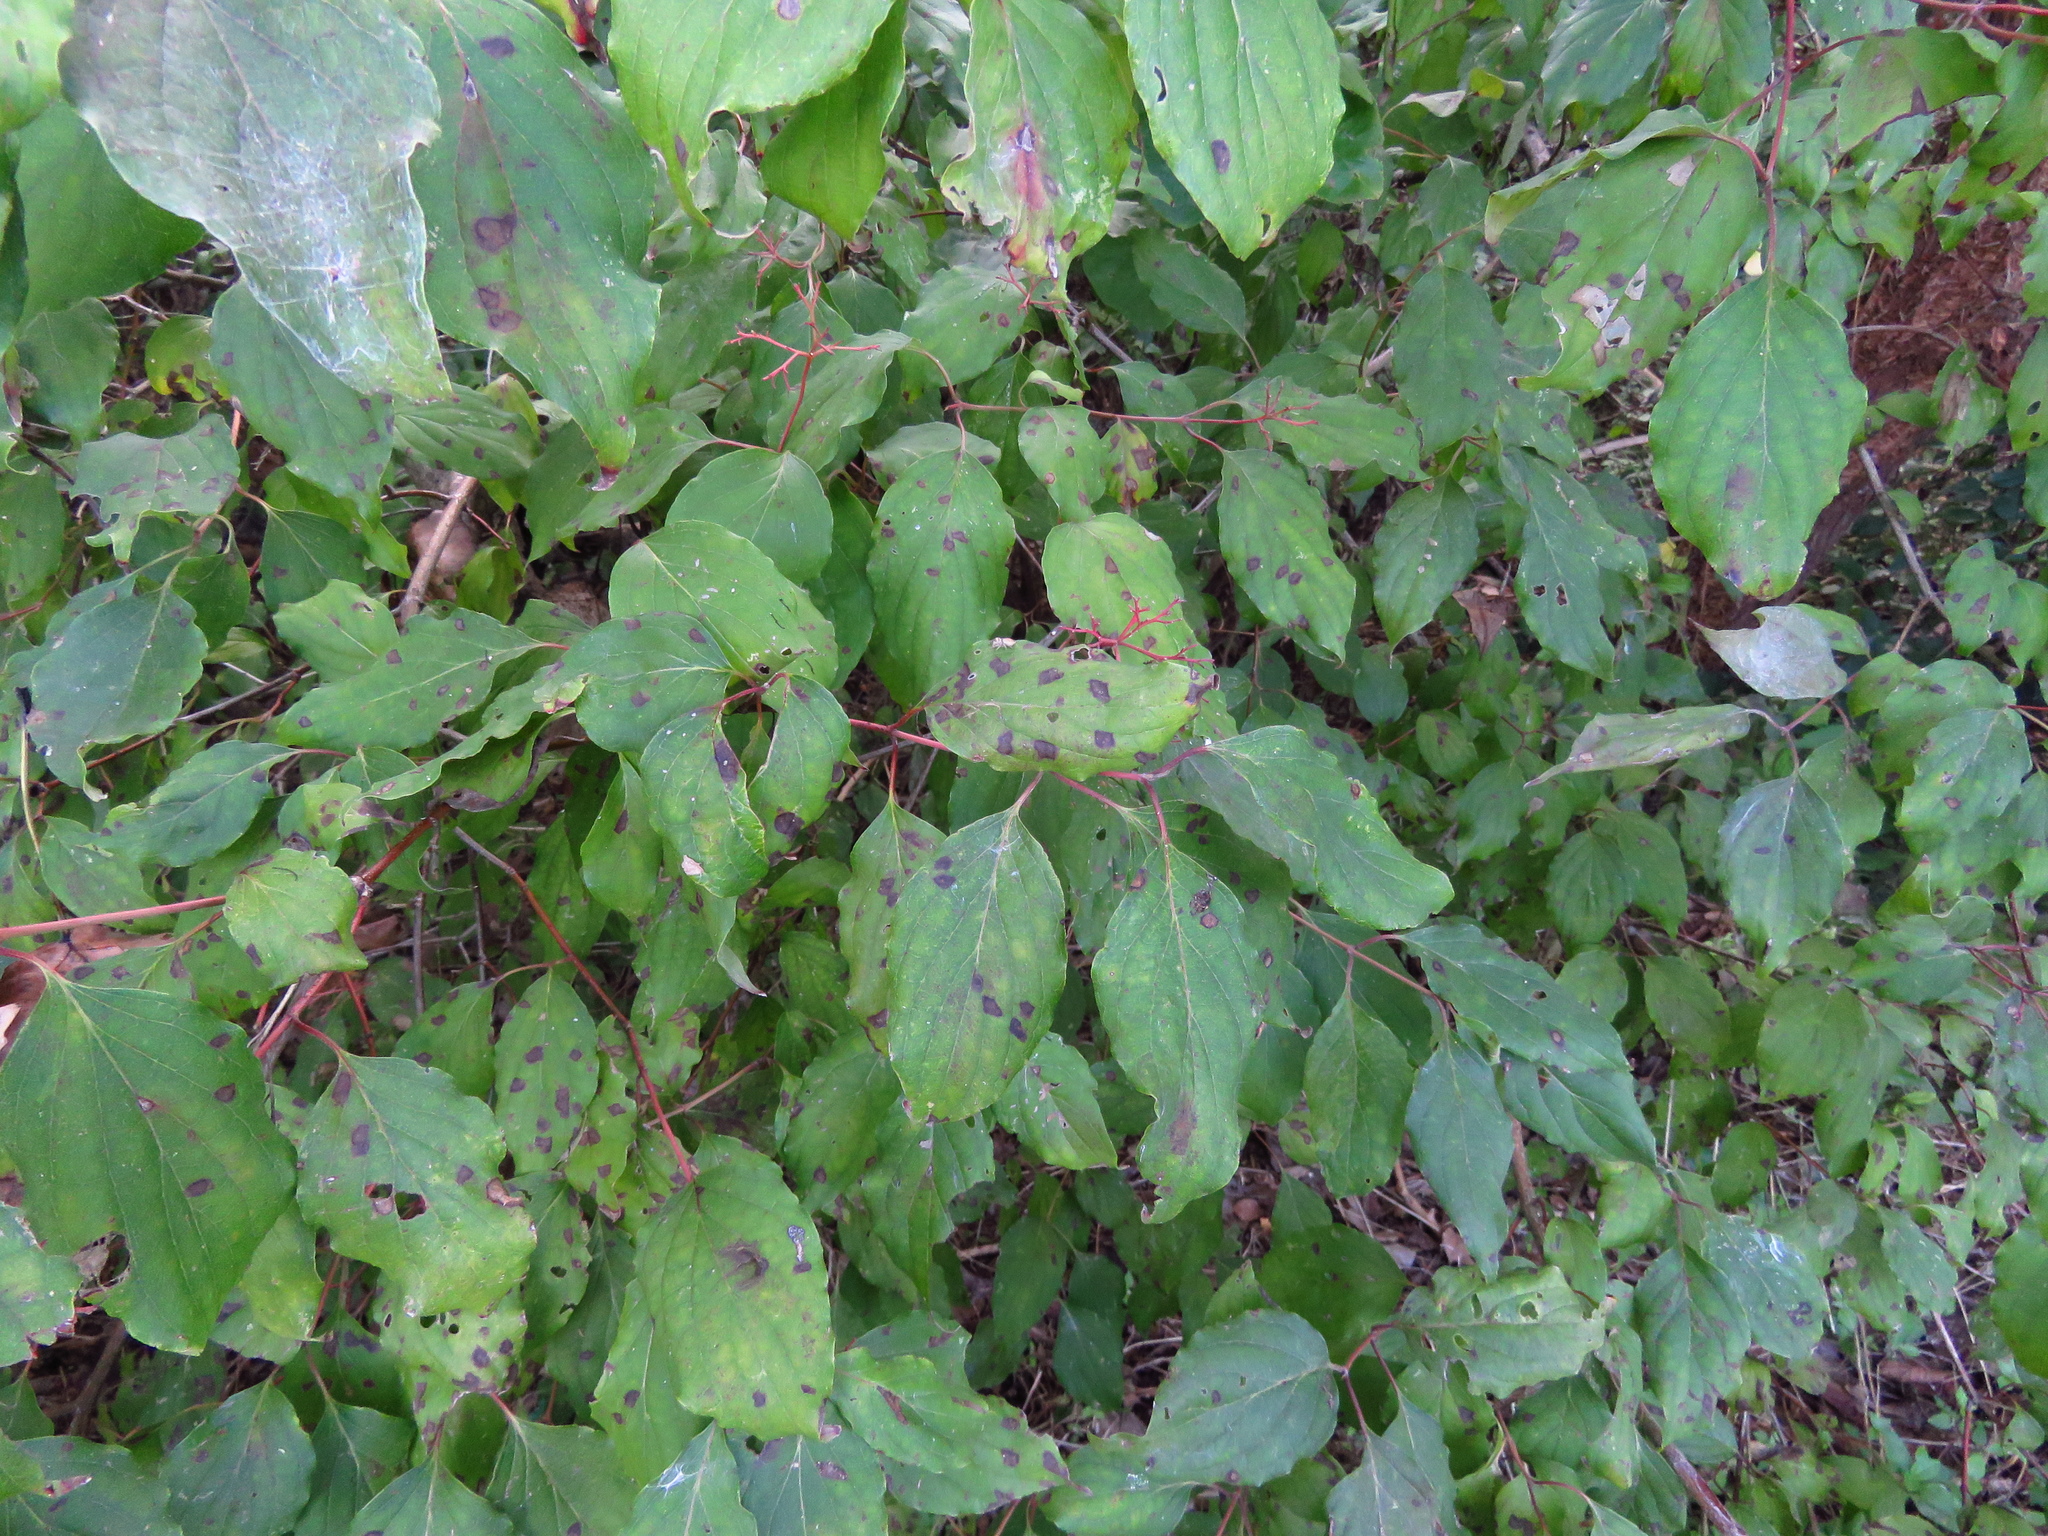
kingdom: Plantae
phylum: Tracheophyta
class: Magnoliopsida
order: Cornales
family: Cornaceae
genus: Cornus
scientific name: Cornus drummondii
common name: Rough-leaf dogwood
